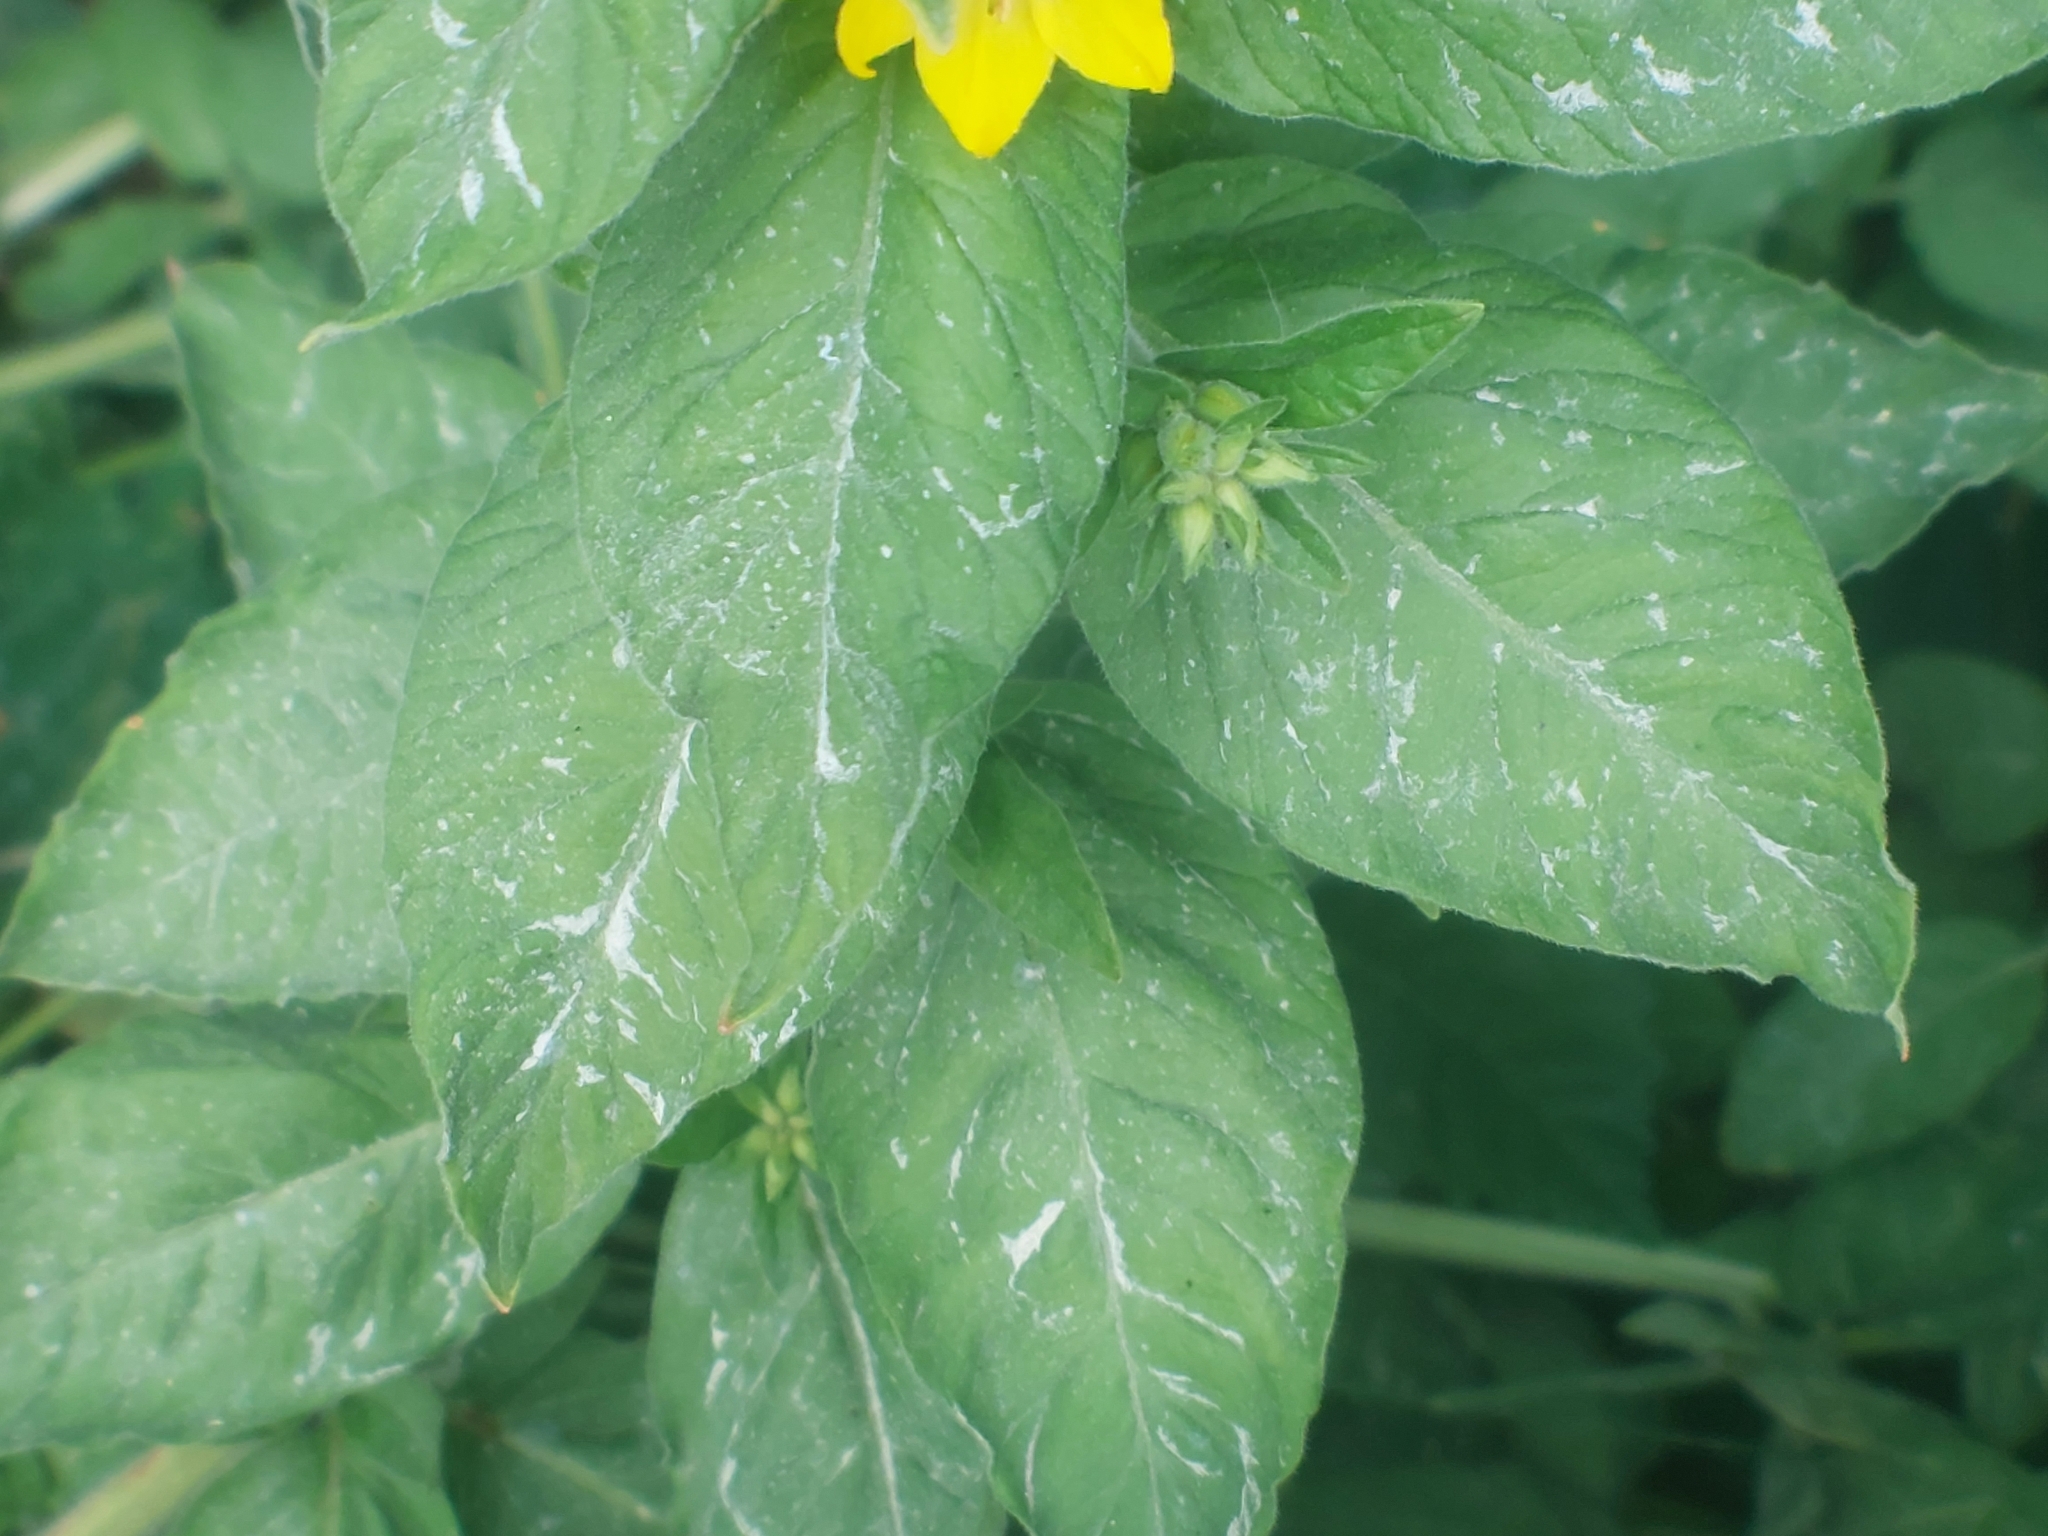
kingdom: Plantae
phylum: Tracheophyta
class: Magnoliopsida
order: Ericales
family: Primulaceae
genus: Lysimachia
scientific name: Lysimachia punctata
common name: Dotted loosestrife
